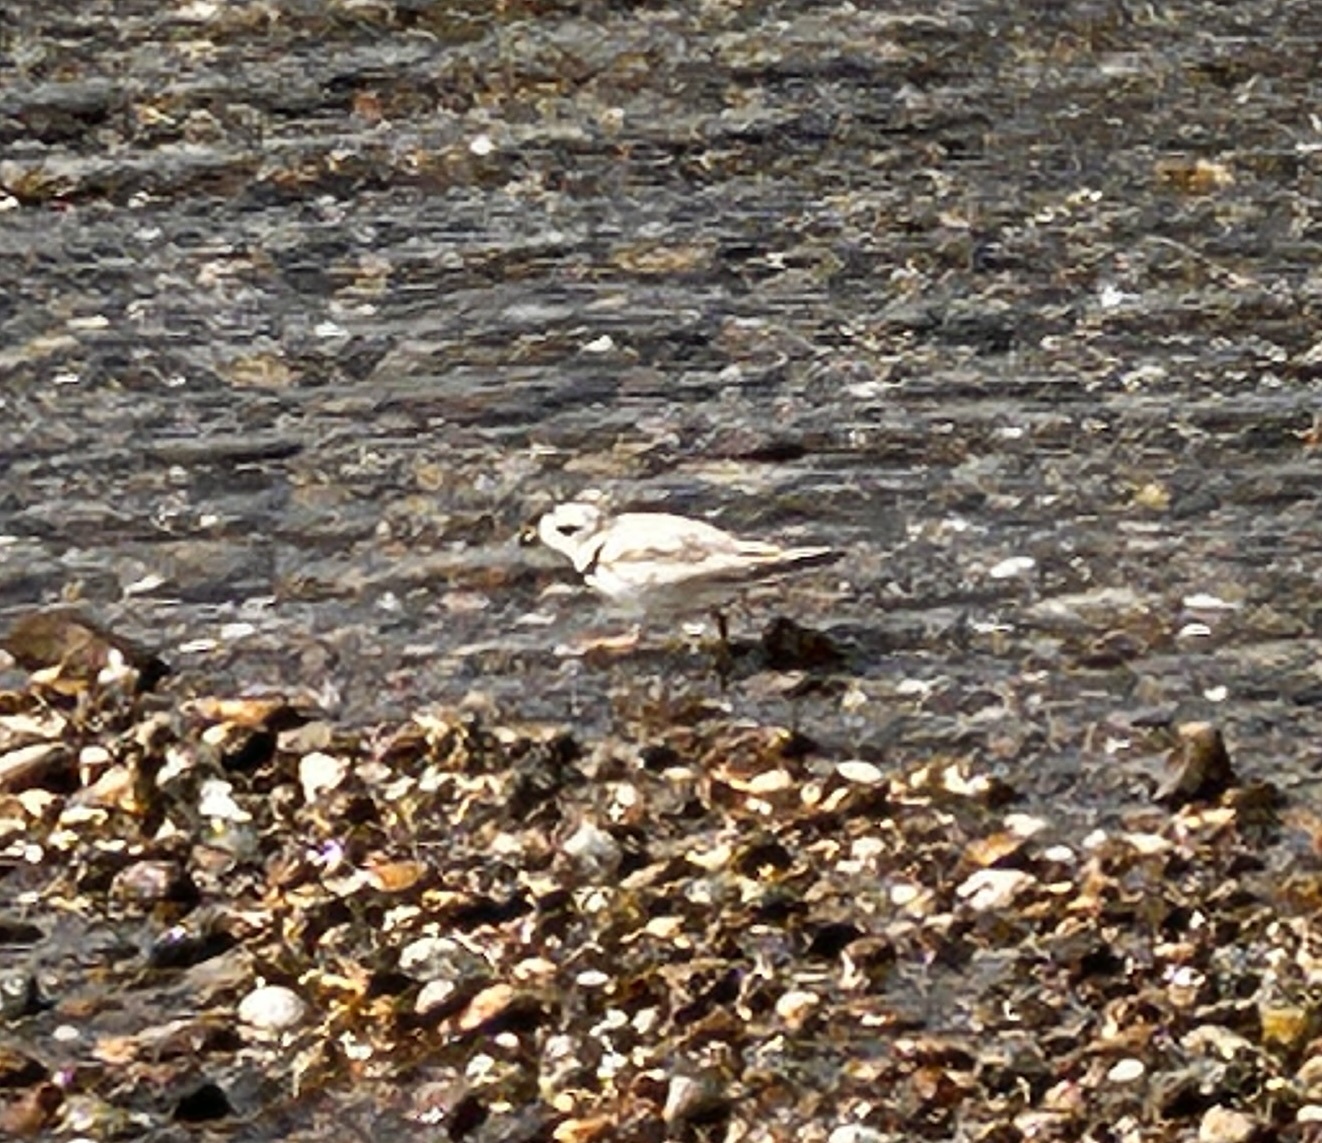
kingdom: Animalia
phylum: Chordata
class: Aves
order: Charadriiformes
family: Charadriidae
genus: Charadrius
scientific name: Charadrius melodus
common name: Piping plover
